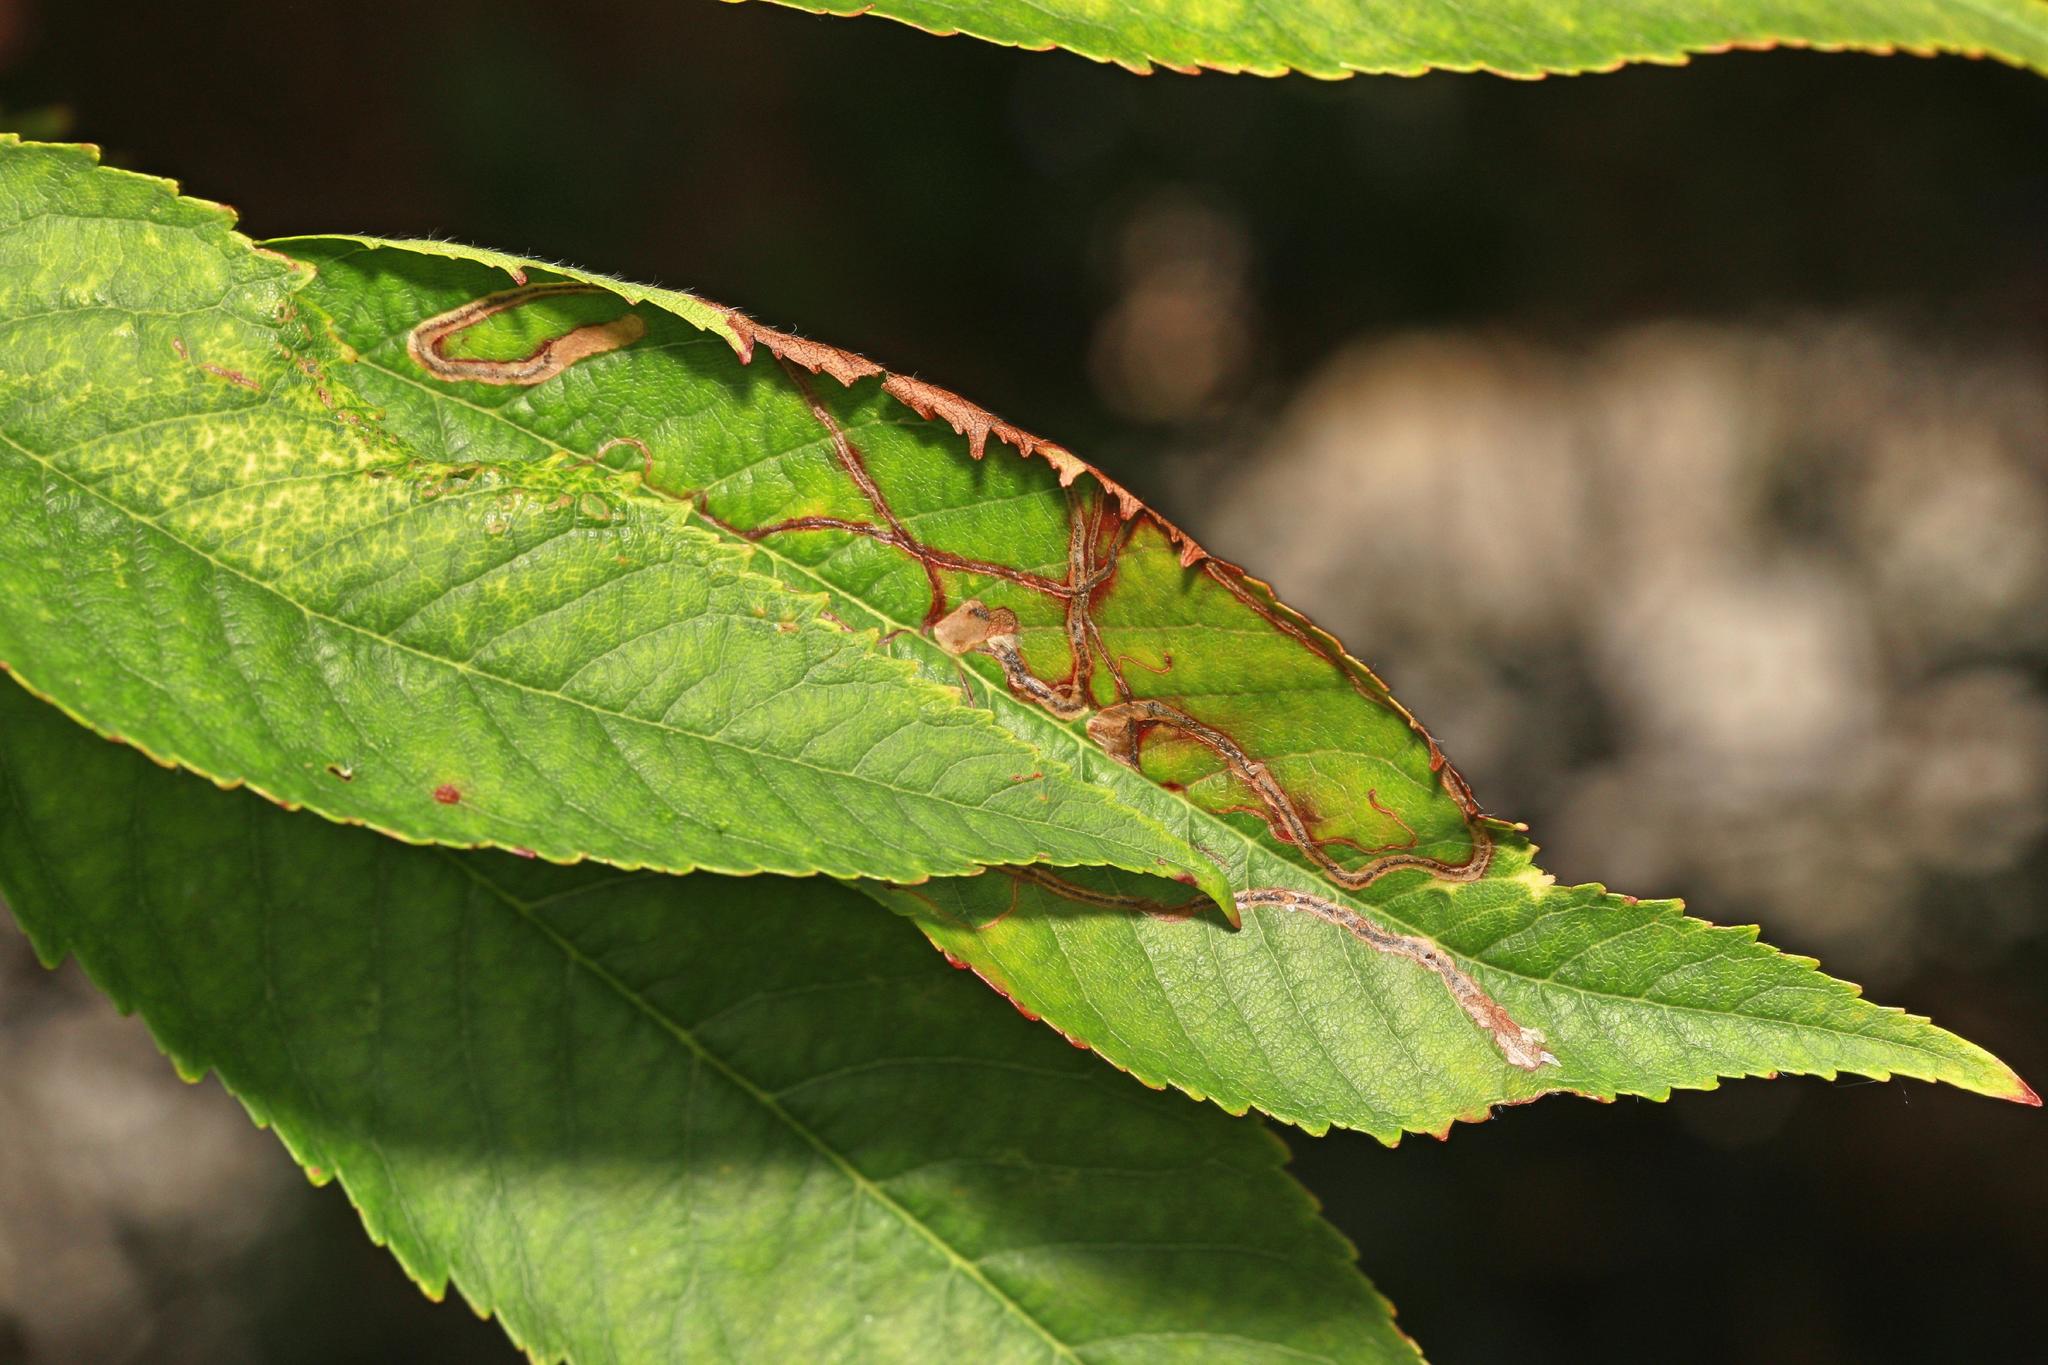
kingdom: Animalia
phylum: Arthropoda
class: Insecta
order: Lepidoptera
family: Lyonetiidae
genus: Lyonetia
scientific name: Lyonetia clerkella
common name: Apple leaf miner
